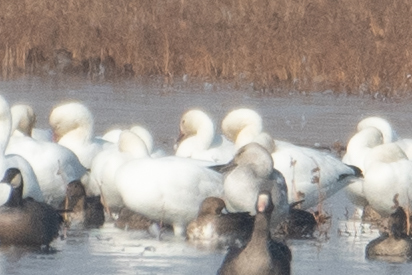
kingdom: Animalia
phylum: Chordata
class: Aves
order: Anseriformes
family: Anatidae
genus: Anser
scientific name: Anser caerulescens
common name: Snow goose
